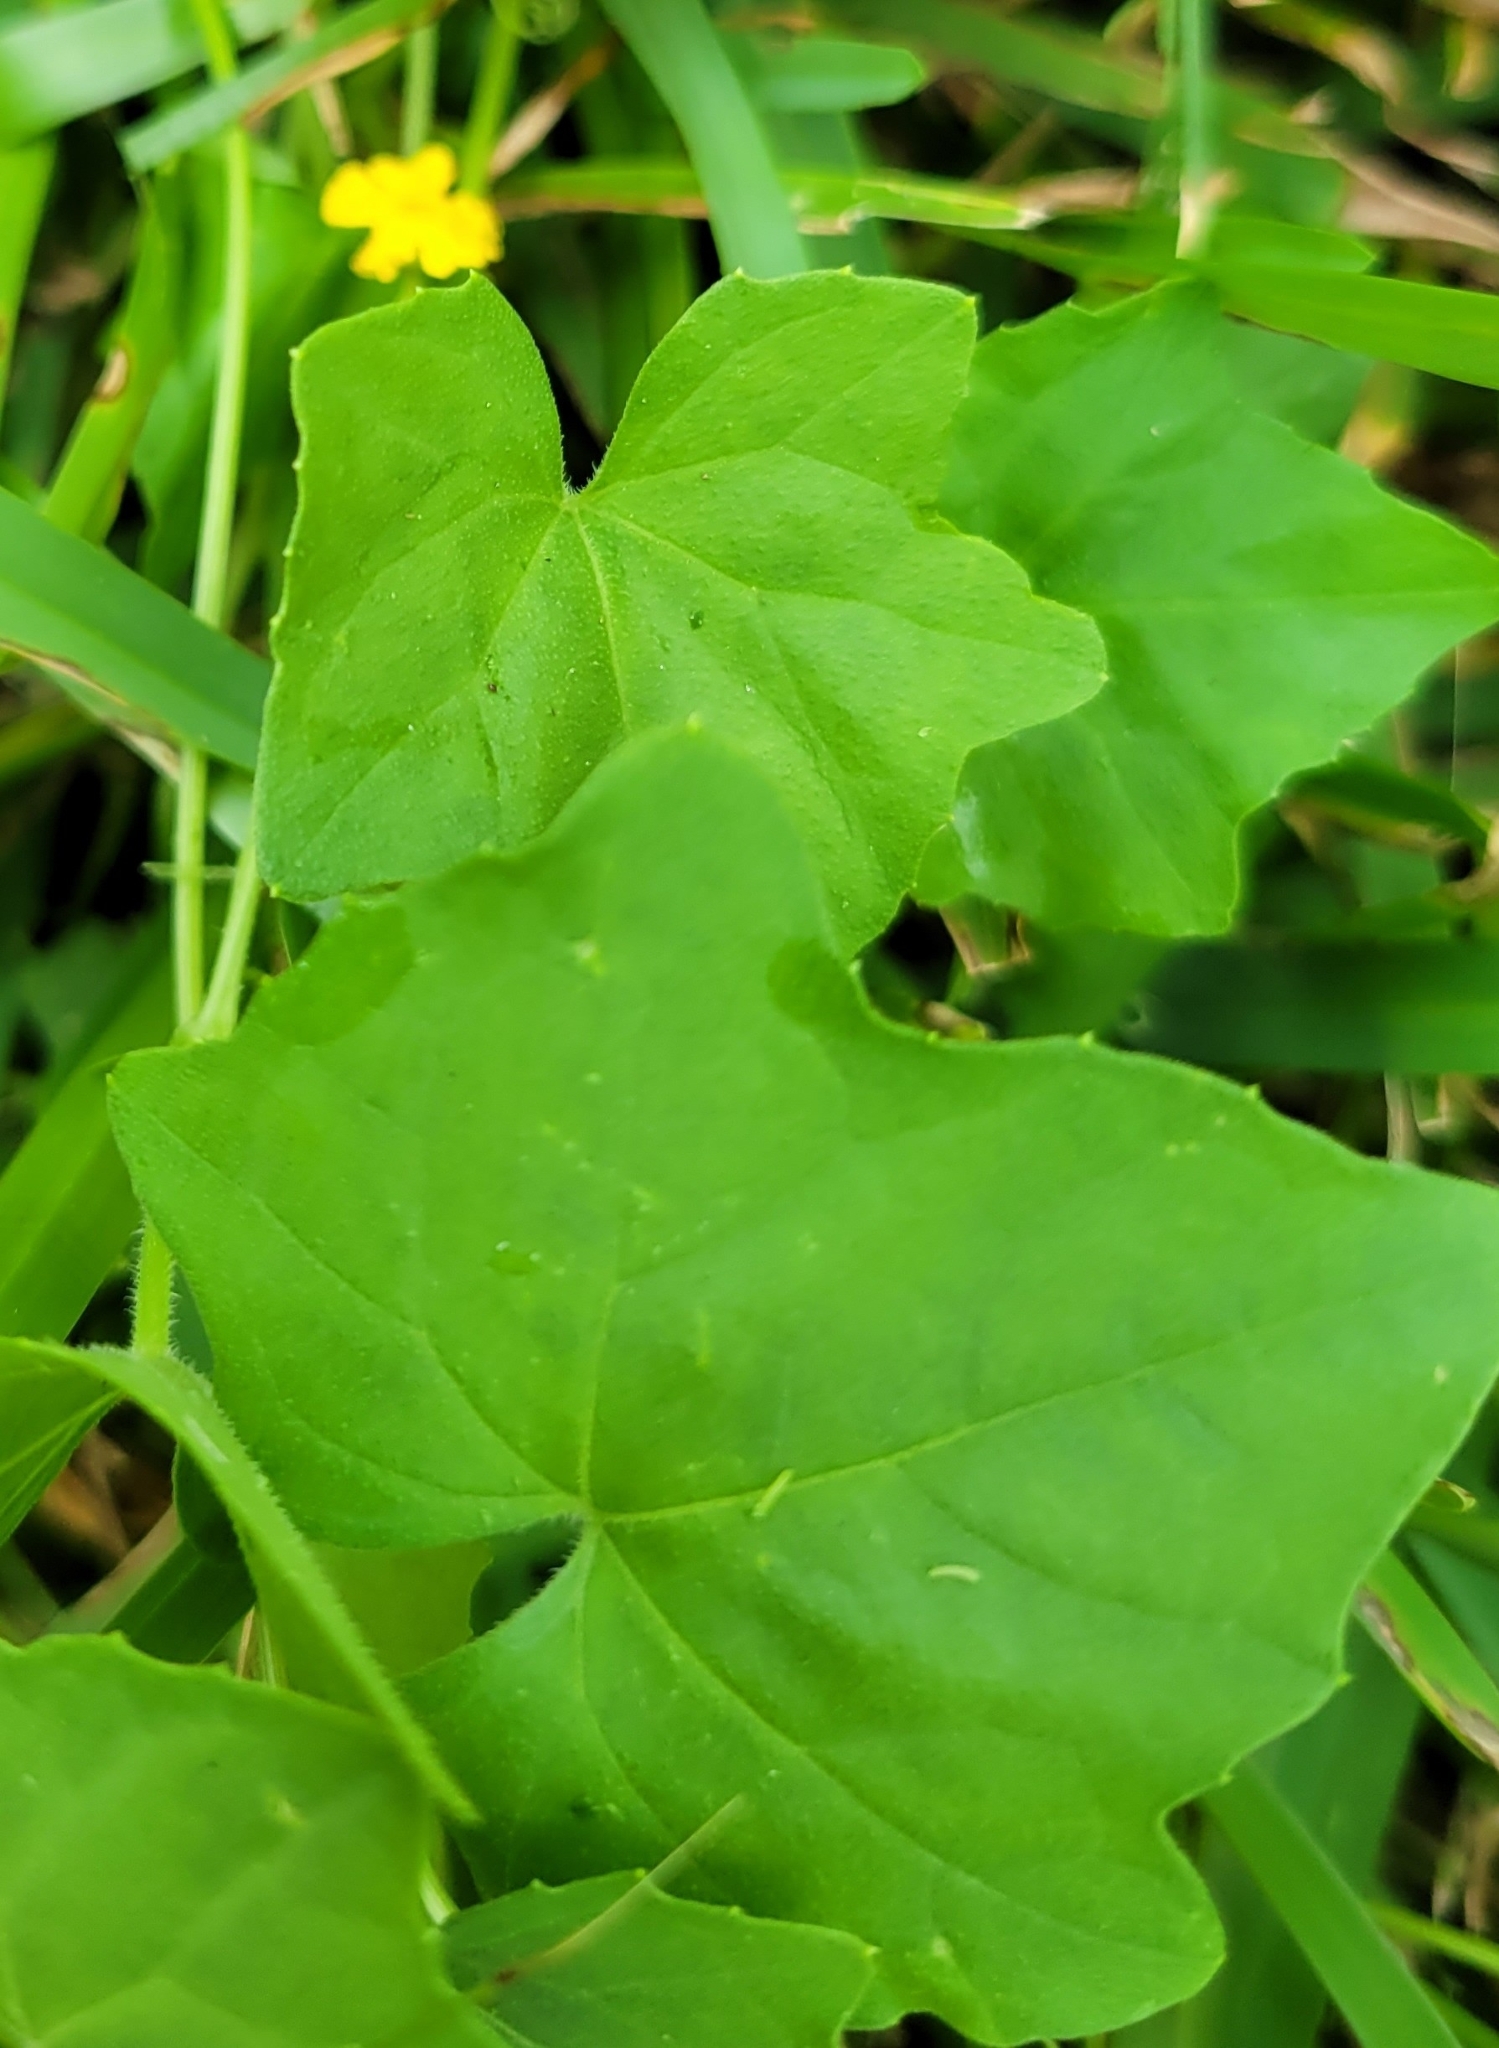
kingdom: Plantae
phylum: Tracheophyta
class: Magnoliopsida
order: Cucurbitales
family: Cucurbitaceae
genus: Melothria
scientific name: Melothria pendula
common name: Creeping-cucumber
